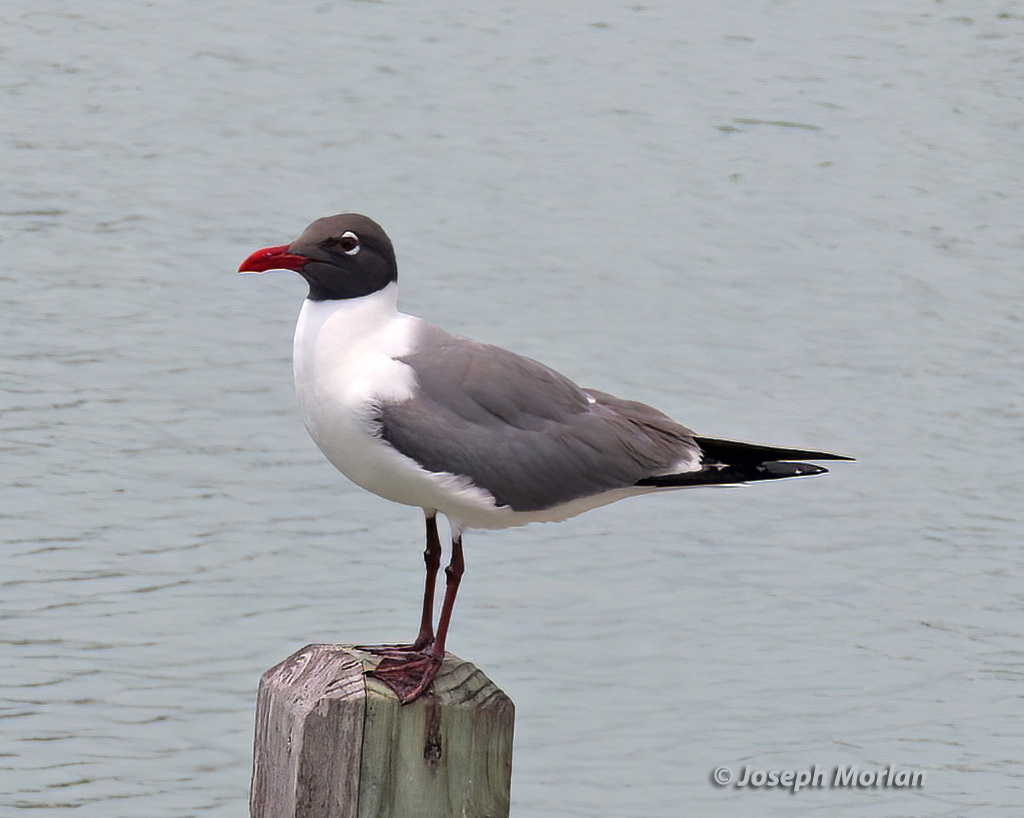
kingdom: Animalia
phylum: Chordata
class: Aves
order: Charadriiformes
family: Laridae
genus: Leucophaeus
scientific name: Leucophaeus atricilla
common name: Laughing gull
